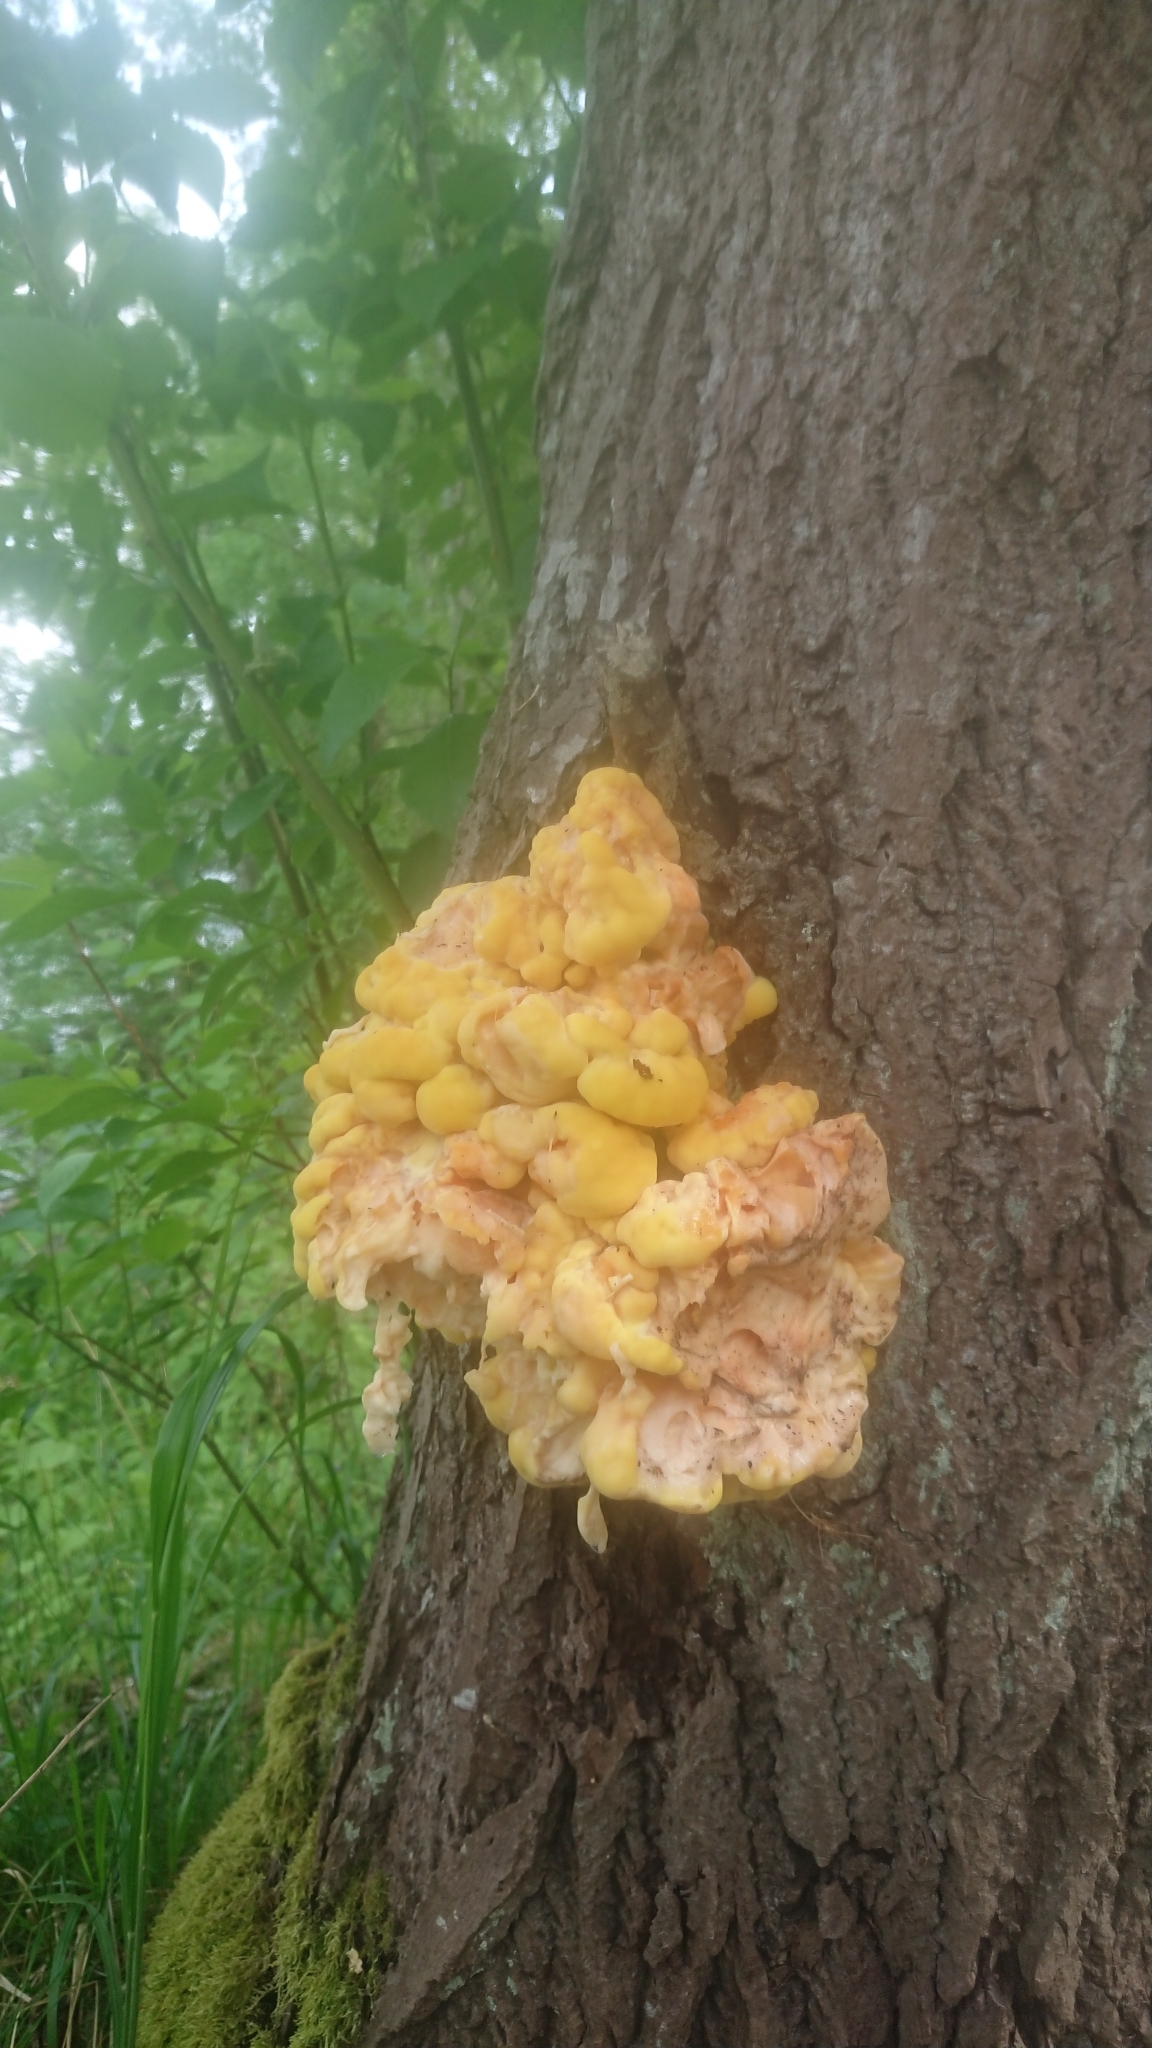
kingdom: Fungi
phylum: Basidiomycota
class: Agaricomycetes
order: Polyporales
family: Laetiporaceae
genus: Laetiporus
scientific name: Laetiporus sulphureus
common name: Chicken of the woods
